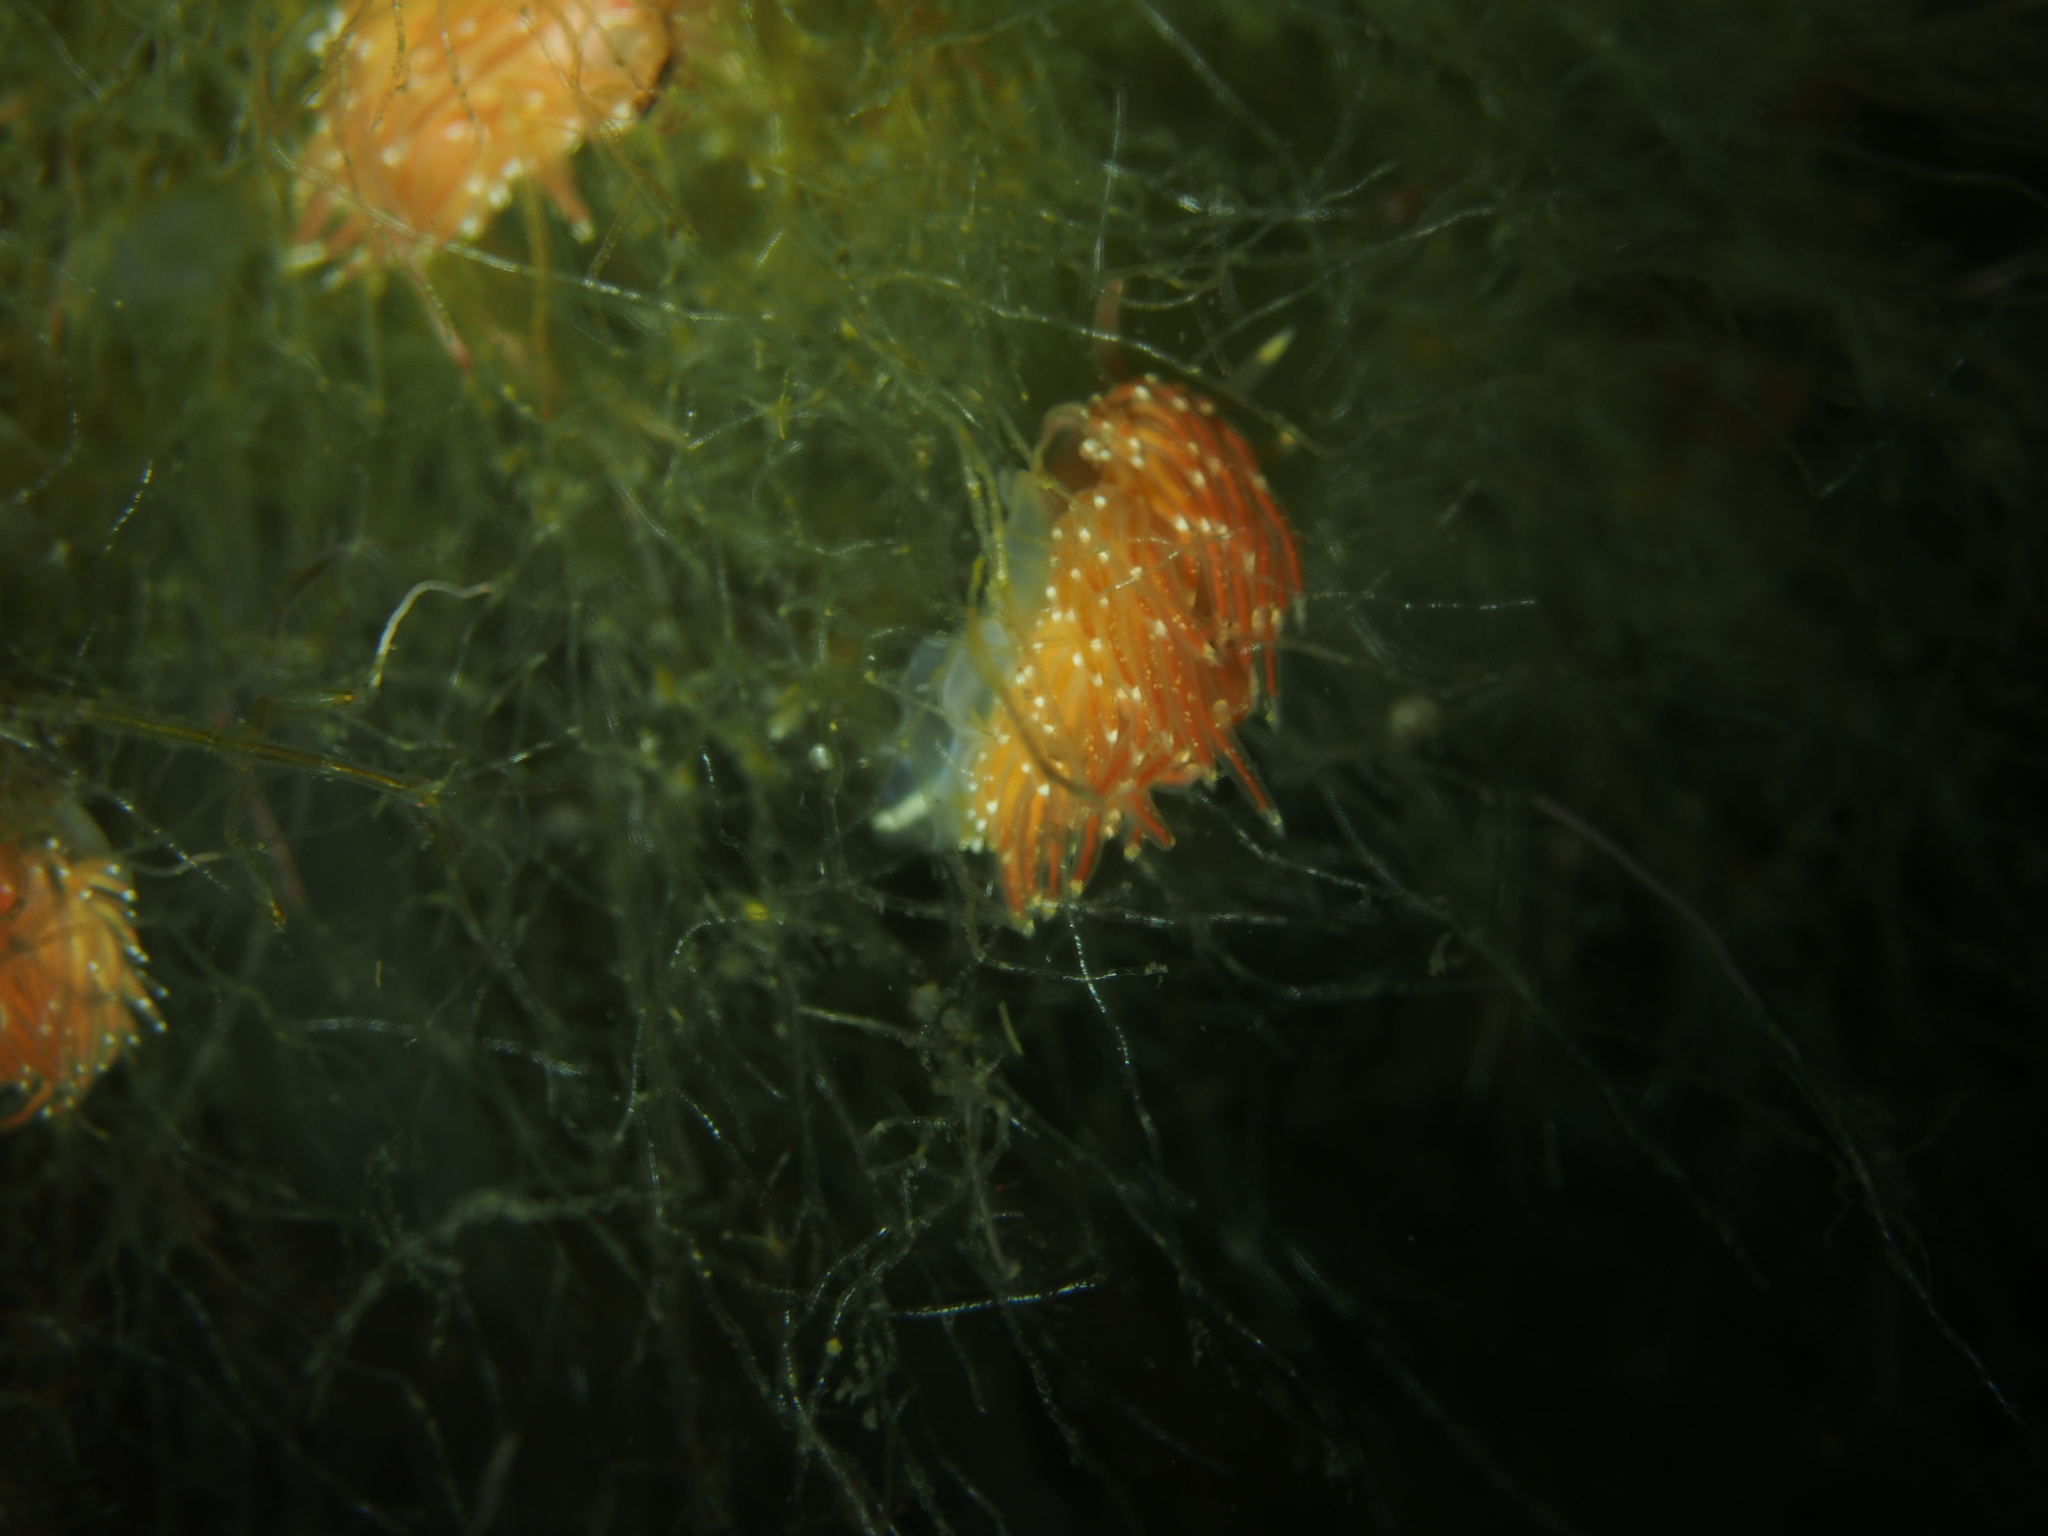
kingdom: Animalia
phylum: Mollusca
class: Gastropoda
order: Nudibranchia
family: Facelinidae
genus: Facelina
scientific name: Facelina bostoniensis
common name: Boston facelina
